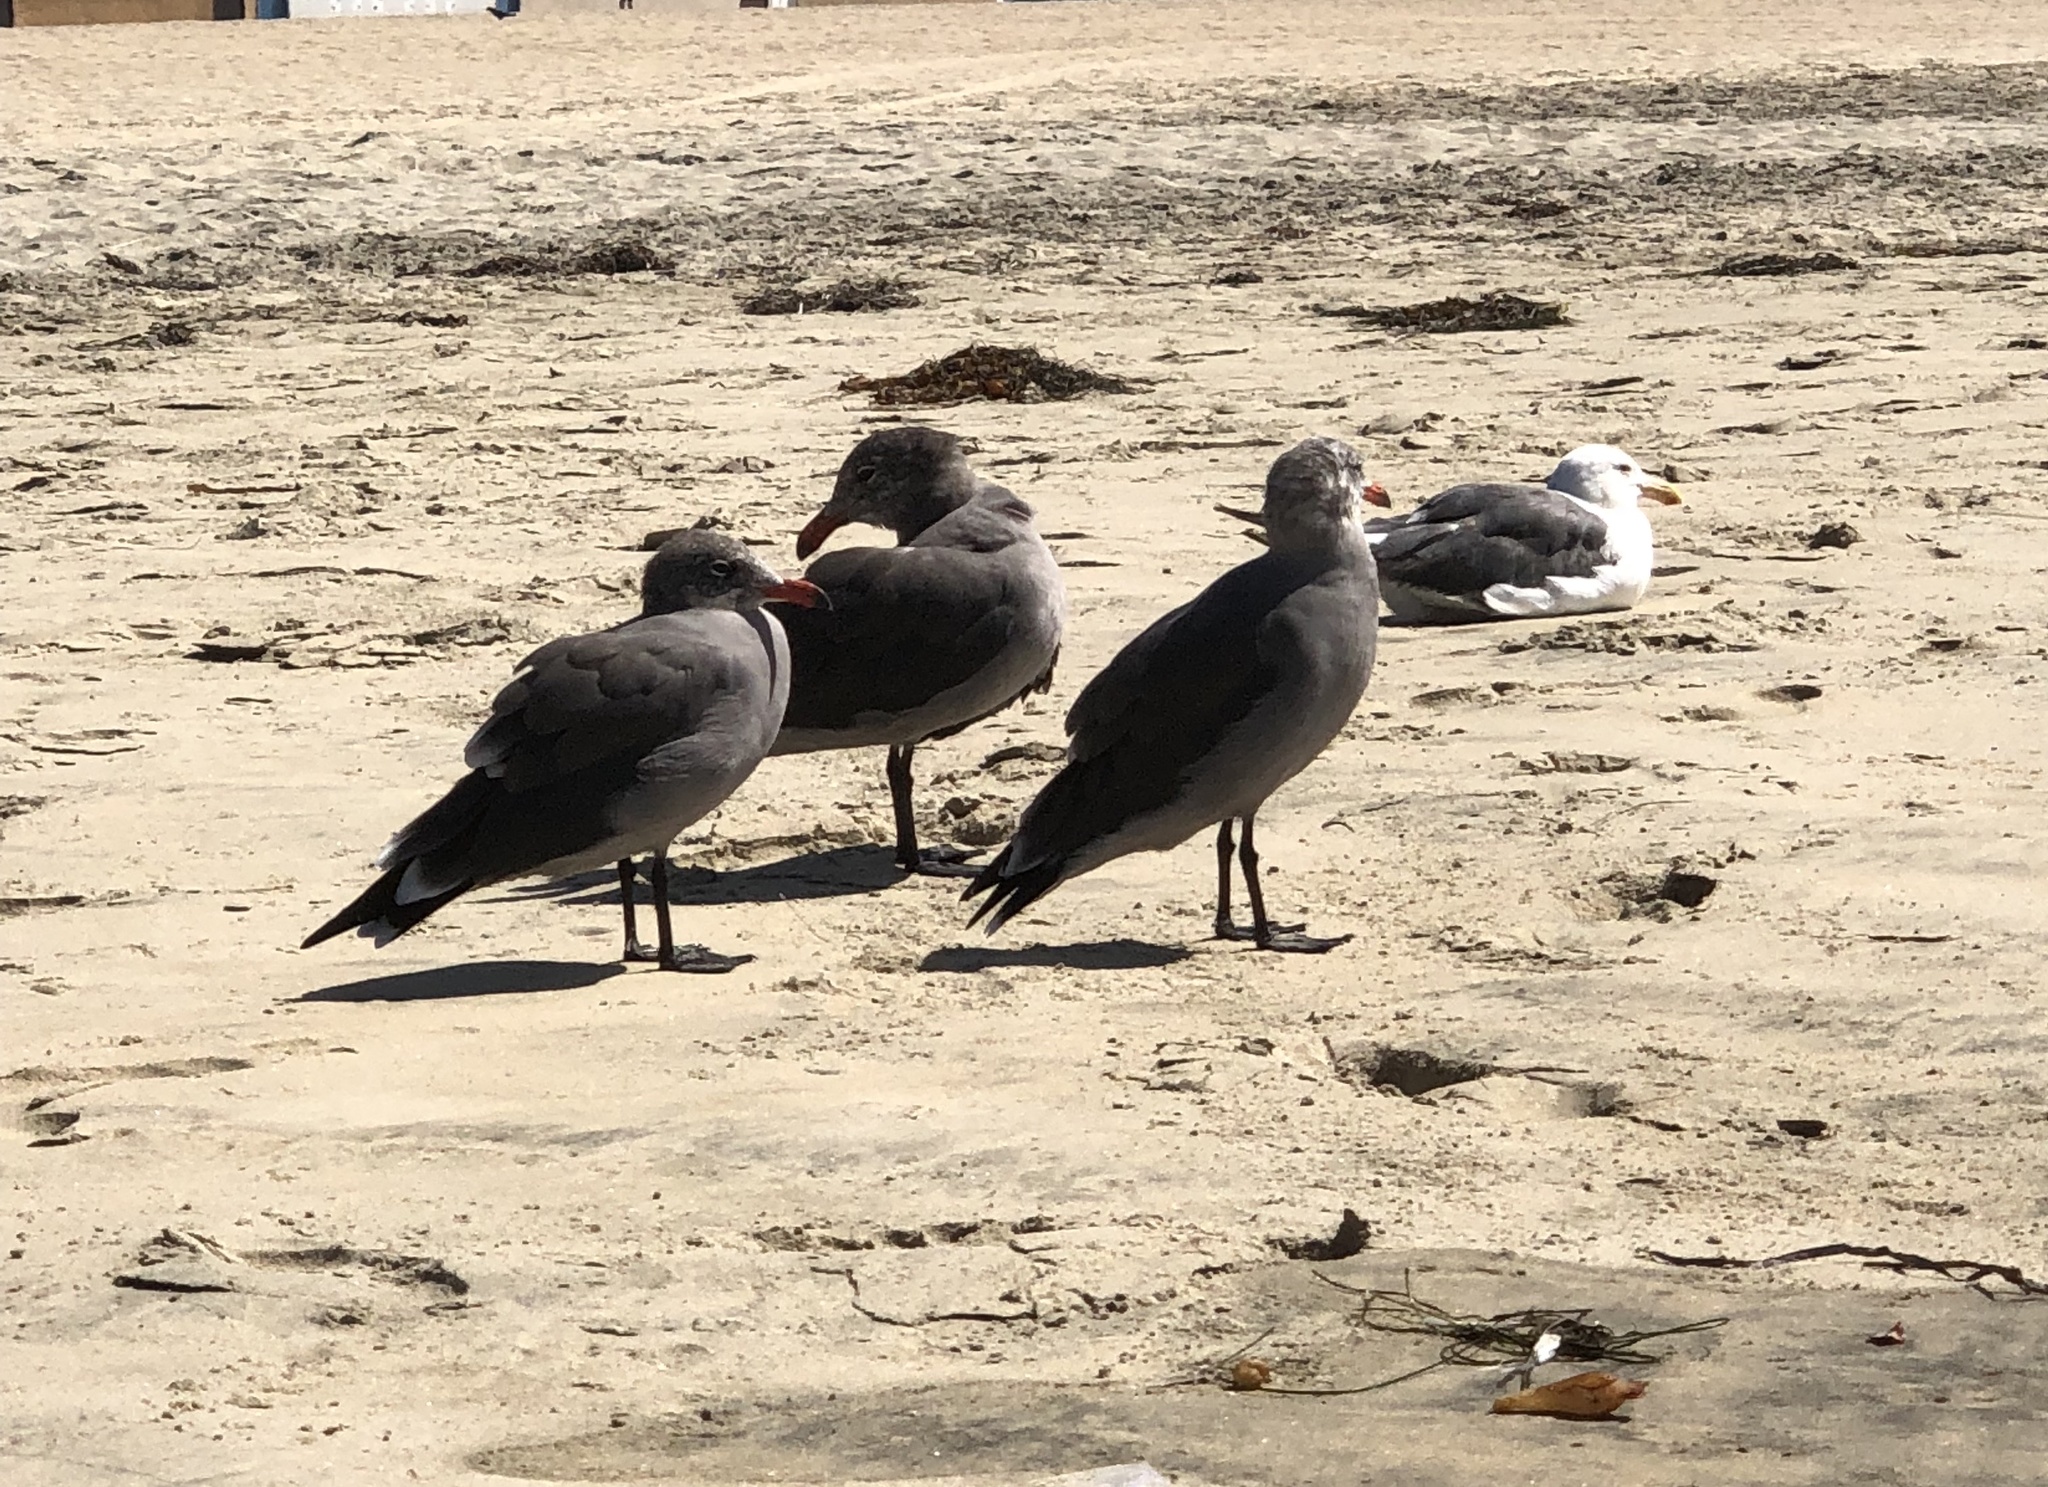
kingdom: Animalia
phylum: Chordata
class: Aves
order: Charadriiformes
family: Laridae
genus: Larus
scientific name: Larus heermanni
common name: Heermann's gull
